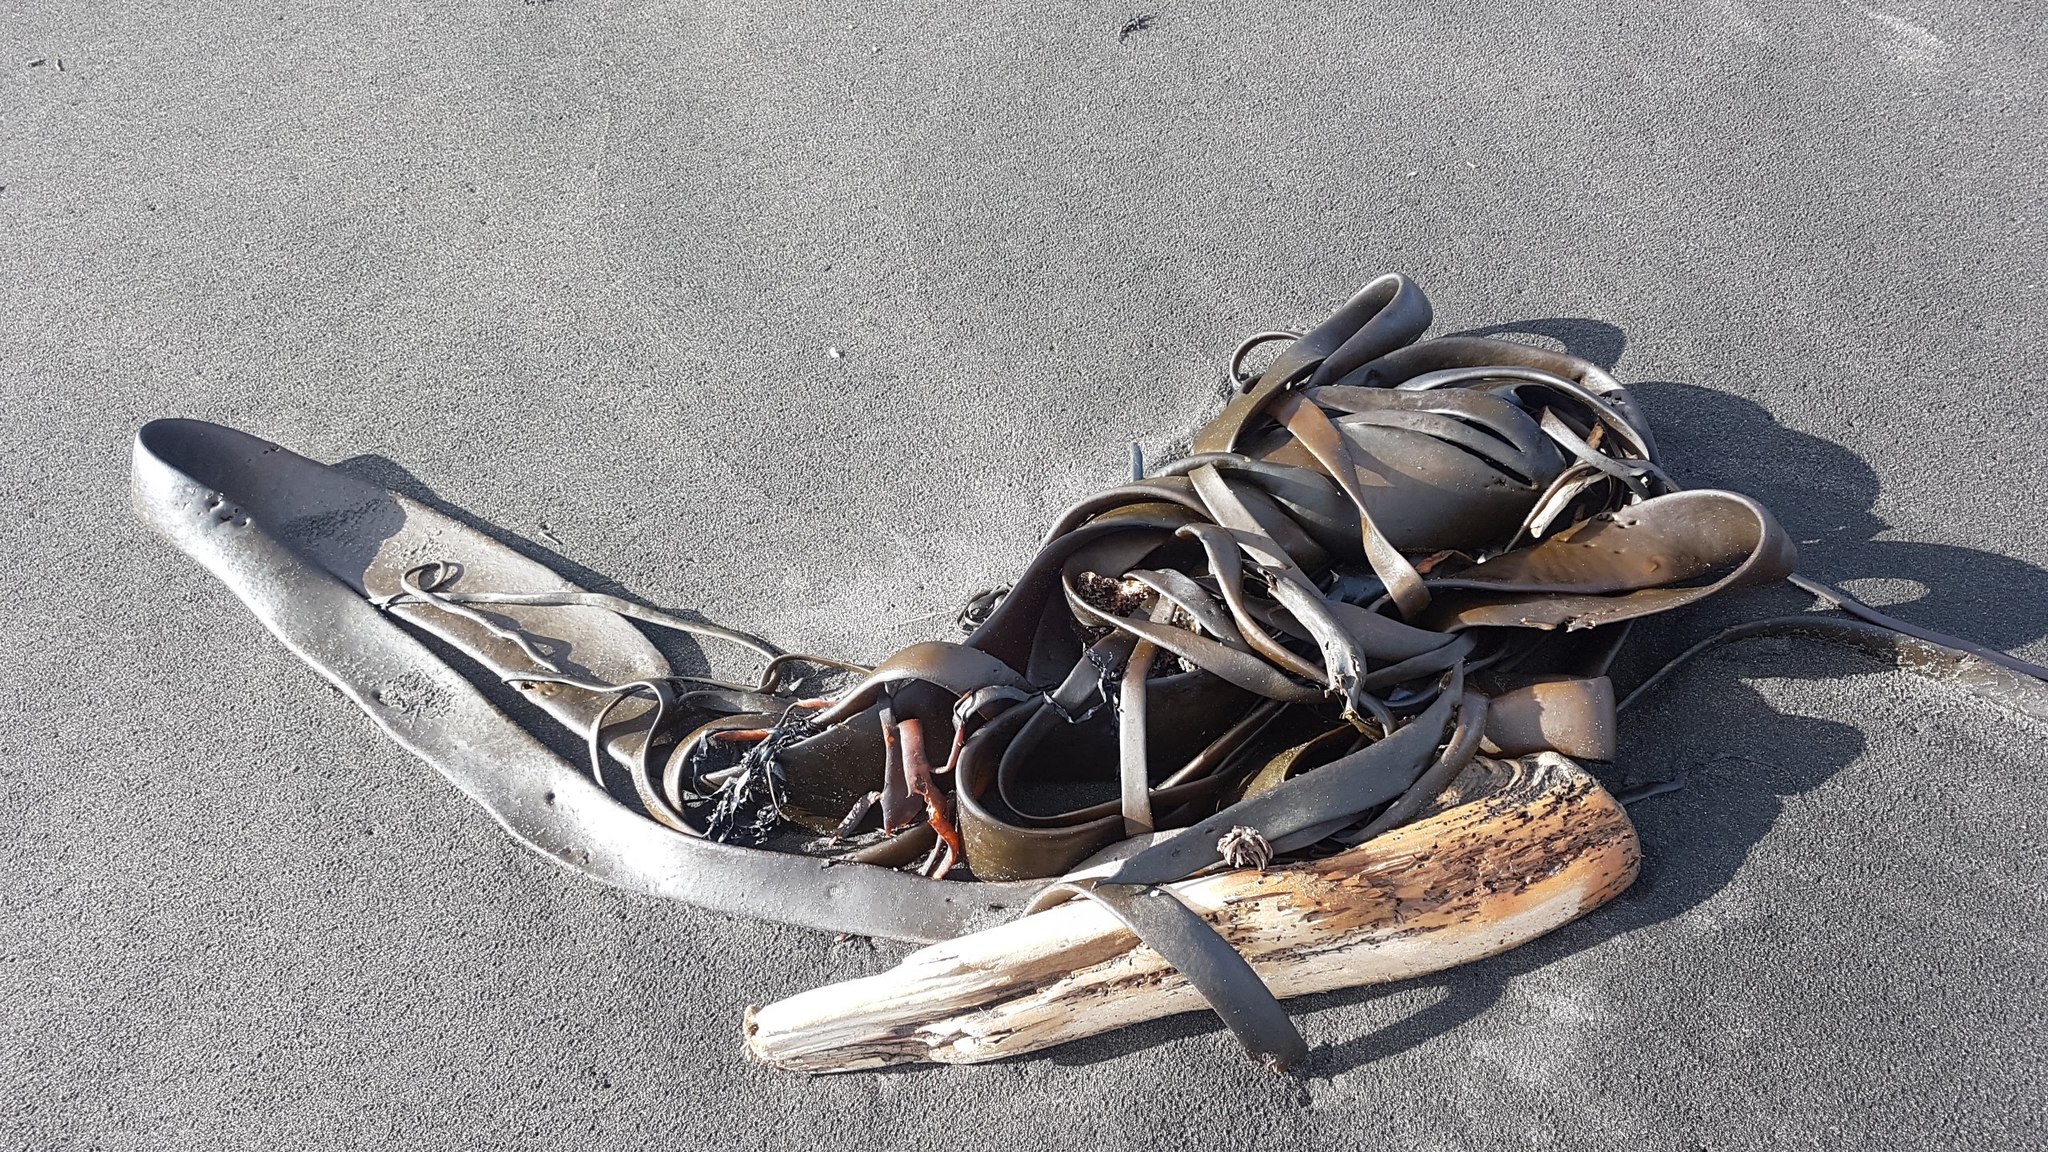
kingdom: Chromista
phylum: Ochrophyta
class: Phaeophyceae
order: Fucales
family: Durvillaeaceae
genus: Durvillaea
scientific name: Durvillaea antarctica
